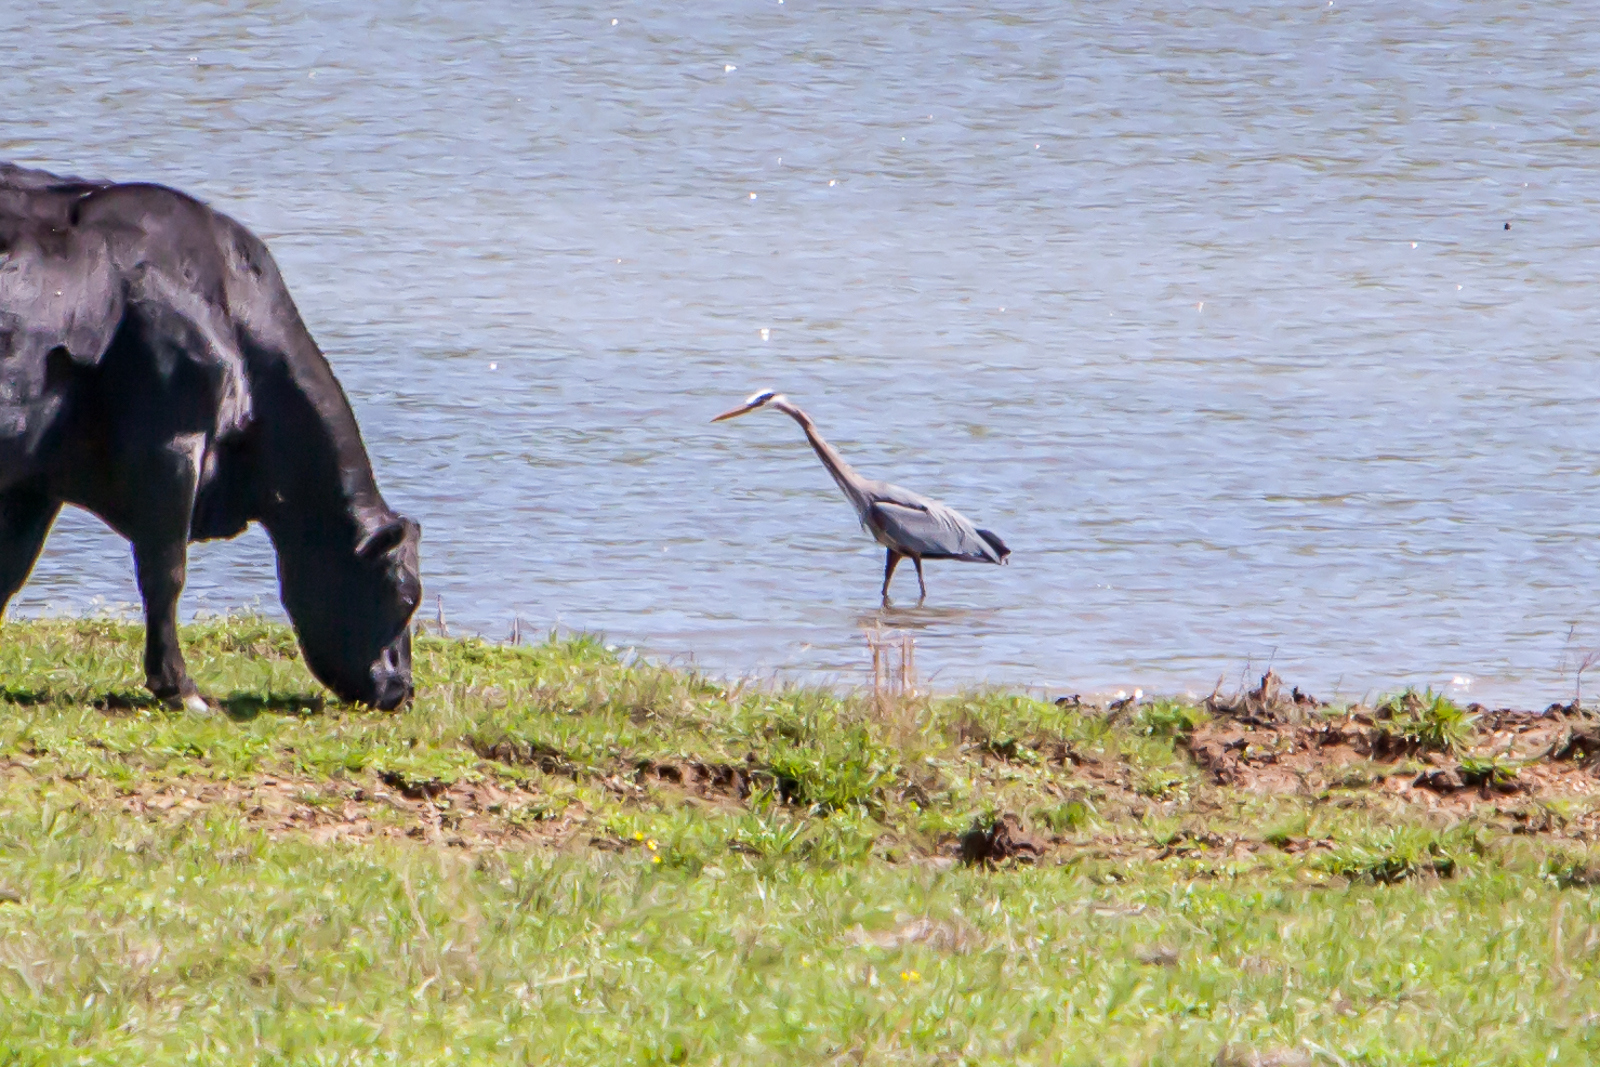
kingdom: Animalia
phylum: Chordata
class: Aves
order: Pelecaniformes
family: Ardeidae
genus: Ardea
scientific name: Ardea herodias
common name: Great blue heron
